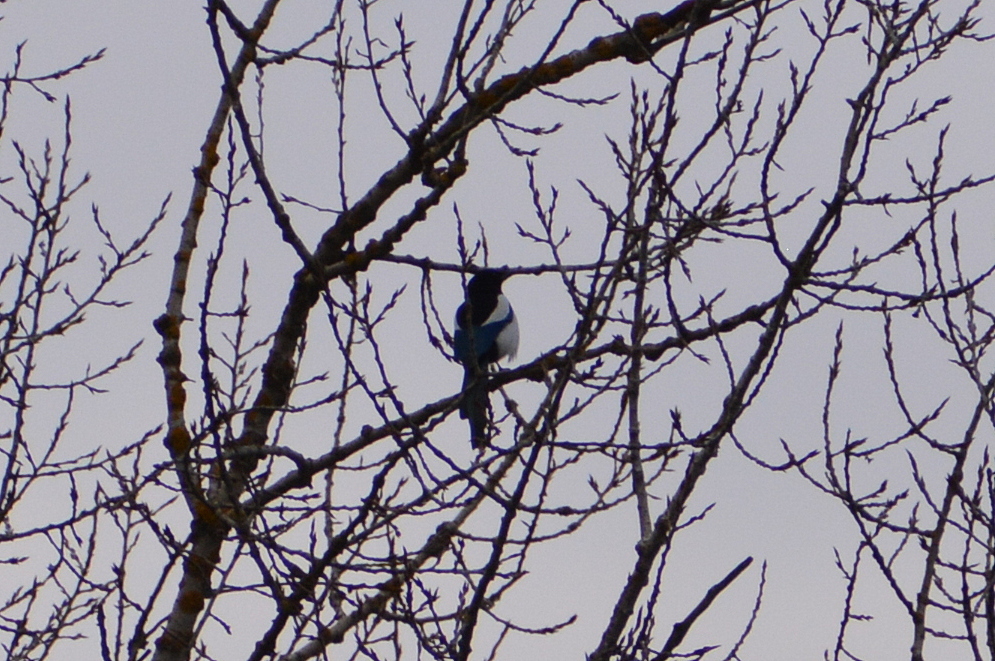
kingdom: Animalia
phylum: Chordata
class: Aves
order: Passeriformes
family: Corvidae
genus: Pica
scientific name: Pica pica
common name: Eurasian magpie
